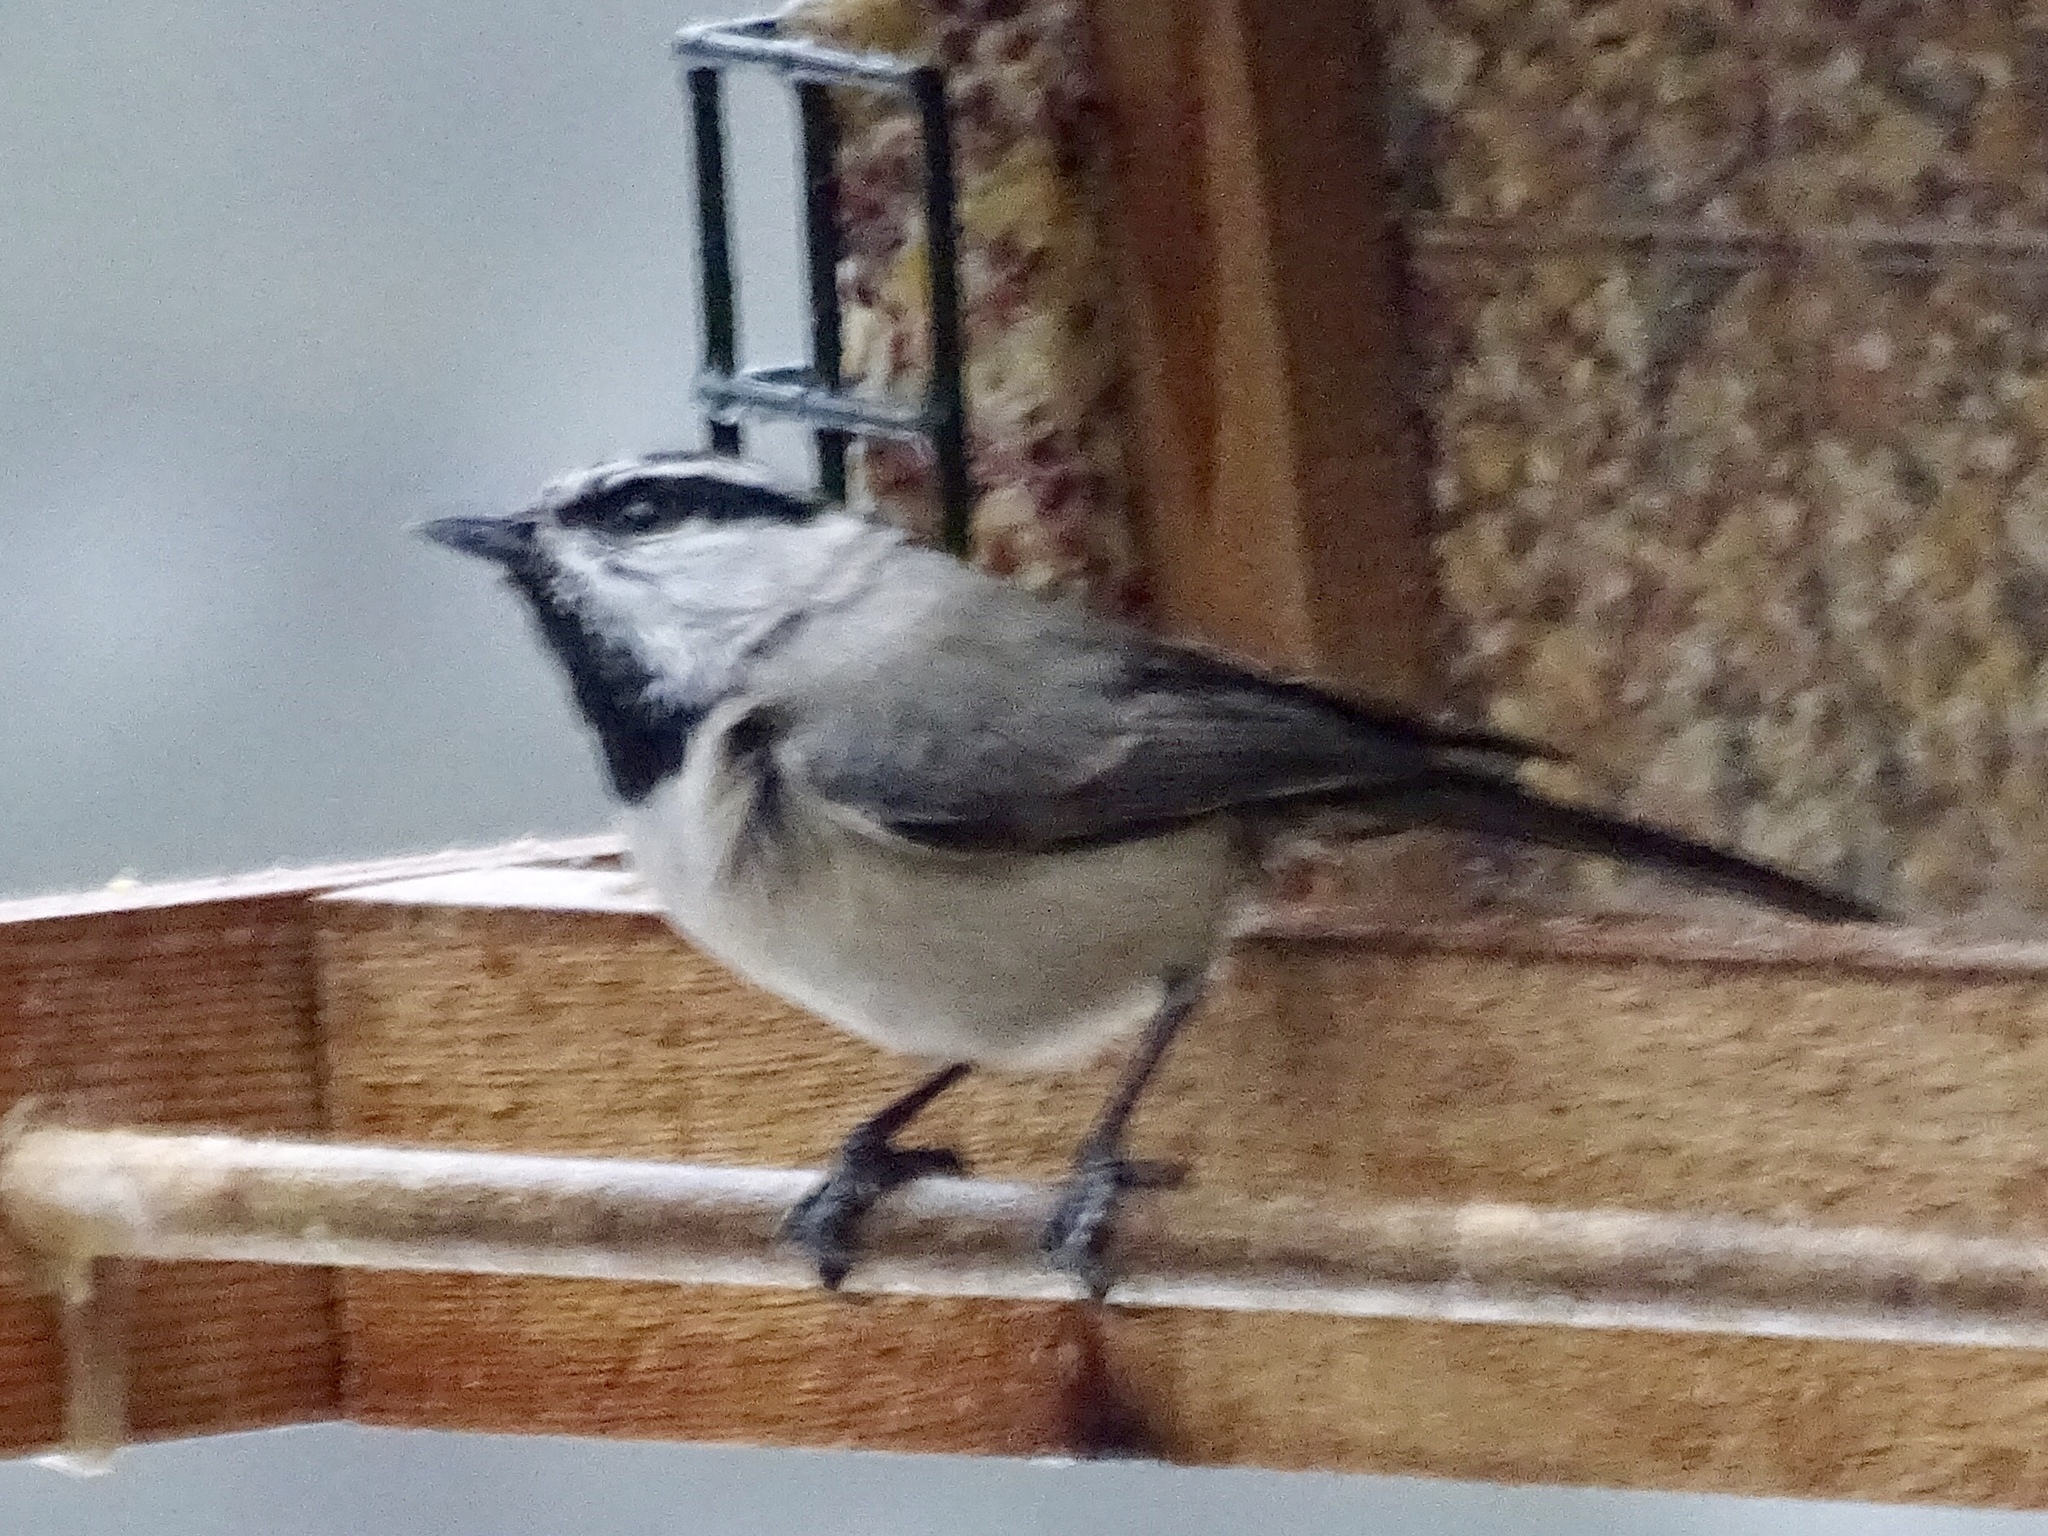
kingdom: Animalia
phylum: Chordata
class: Aves
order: Passeriformes
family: Paridae
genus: Poecile
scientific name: Poecile gambeli
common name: Mountain chickadee
